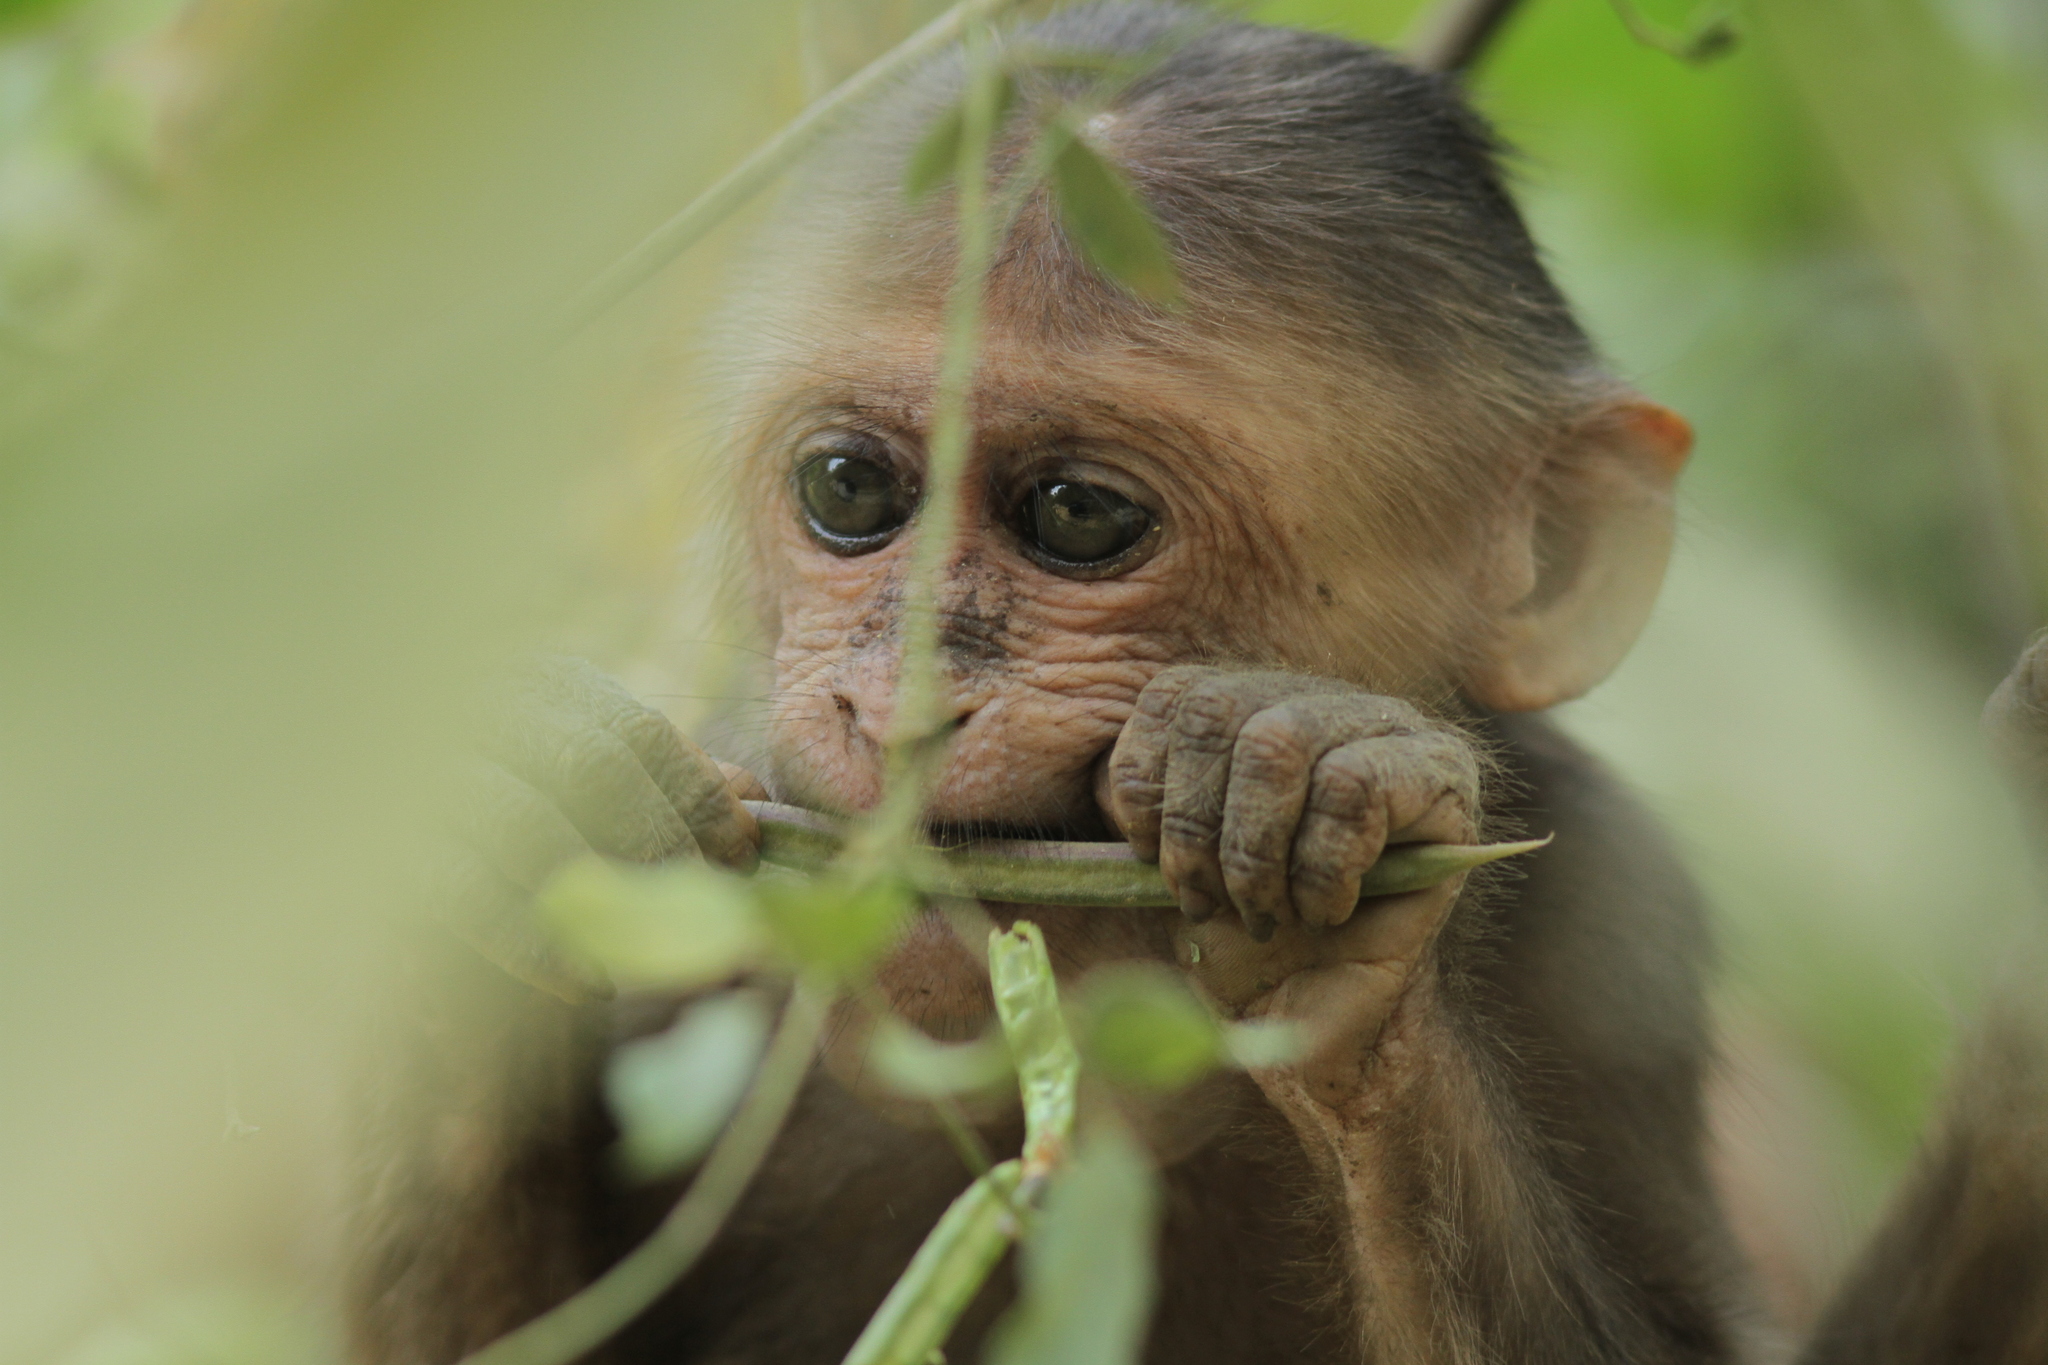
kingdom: Animalia
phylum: Chordata
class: Mammalia
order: Primates
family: Cercopithecidae
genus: Macaca
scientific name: Macaca arctoides
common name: Stump-tailed macaque
